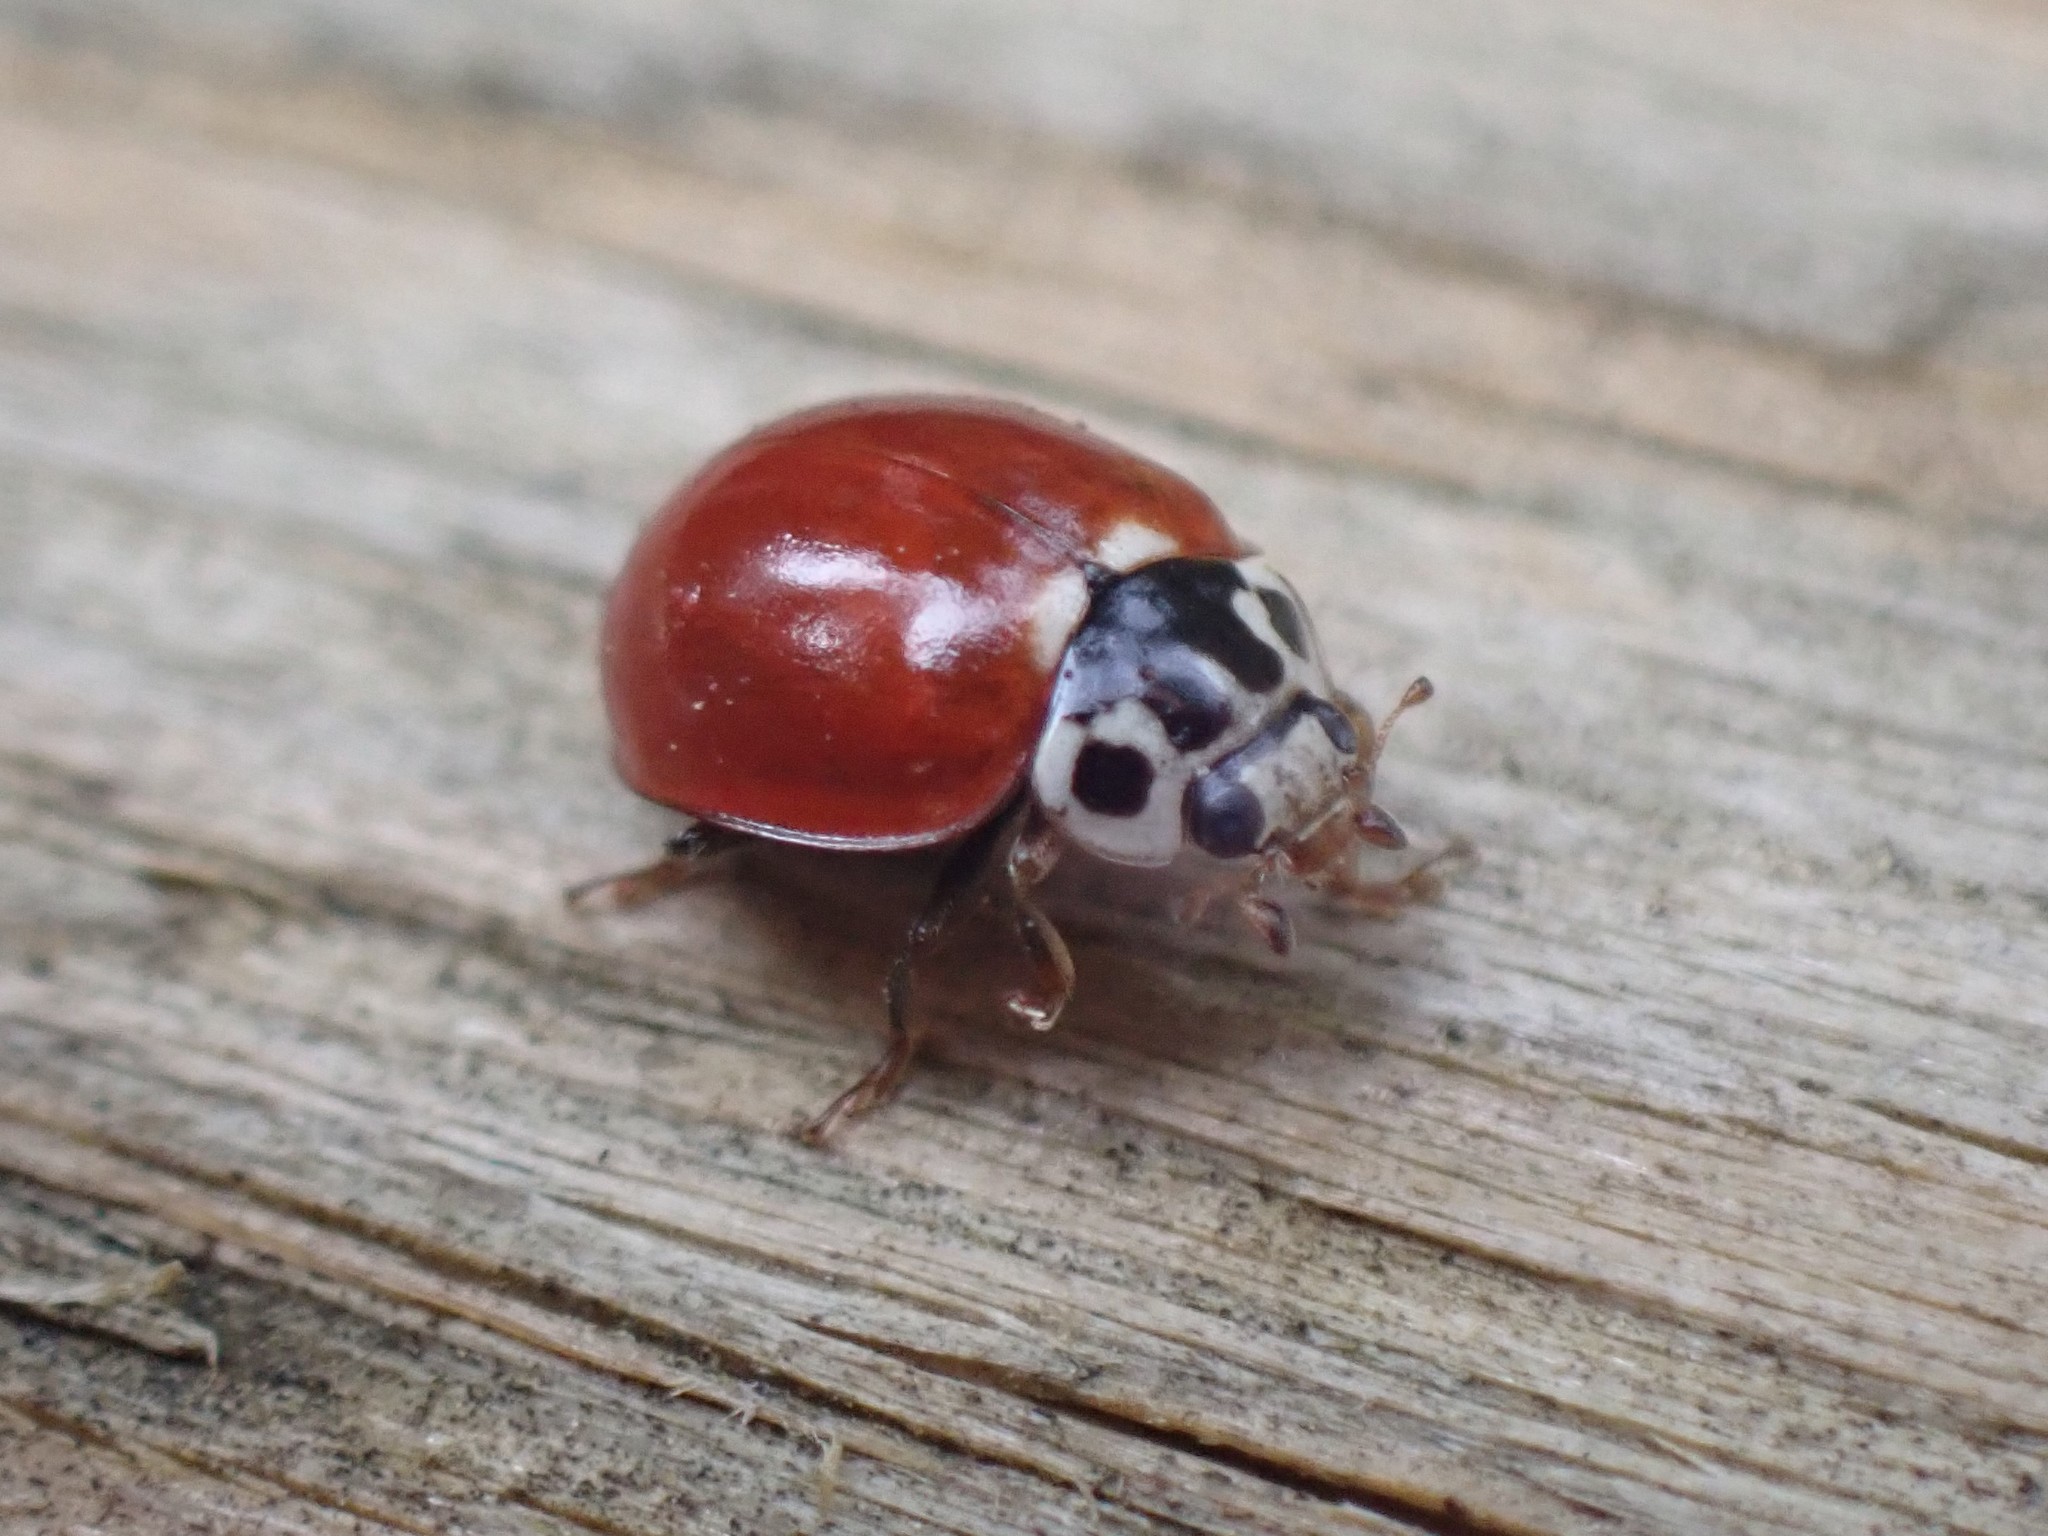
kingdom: Animalia
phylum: Arthropoda
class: Insecta
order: Coleoptera
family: Coccinellidae
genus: Cycloneda
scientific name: Cycloneda polita
